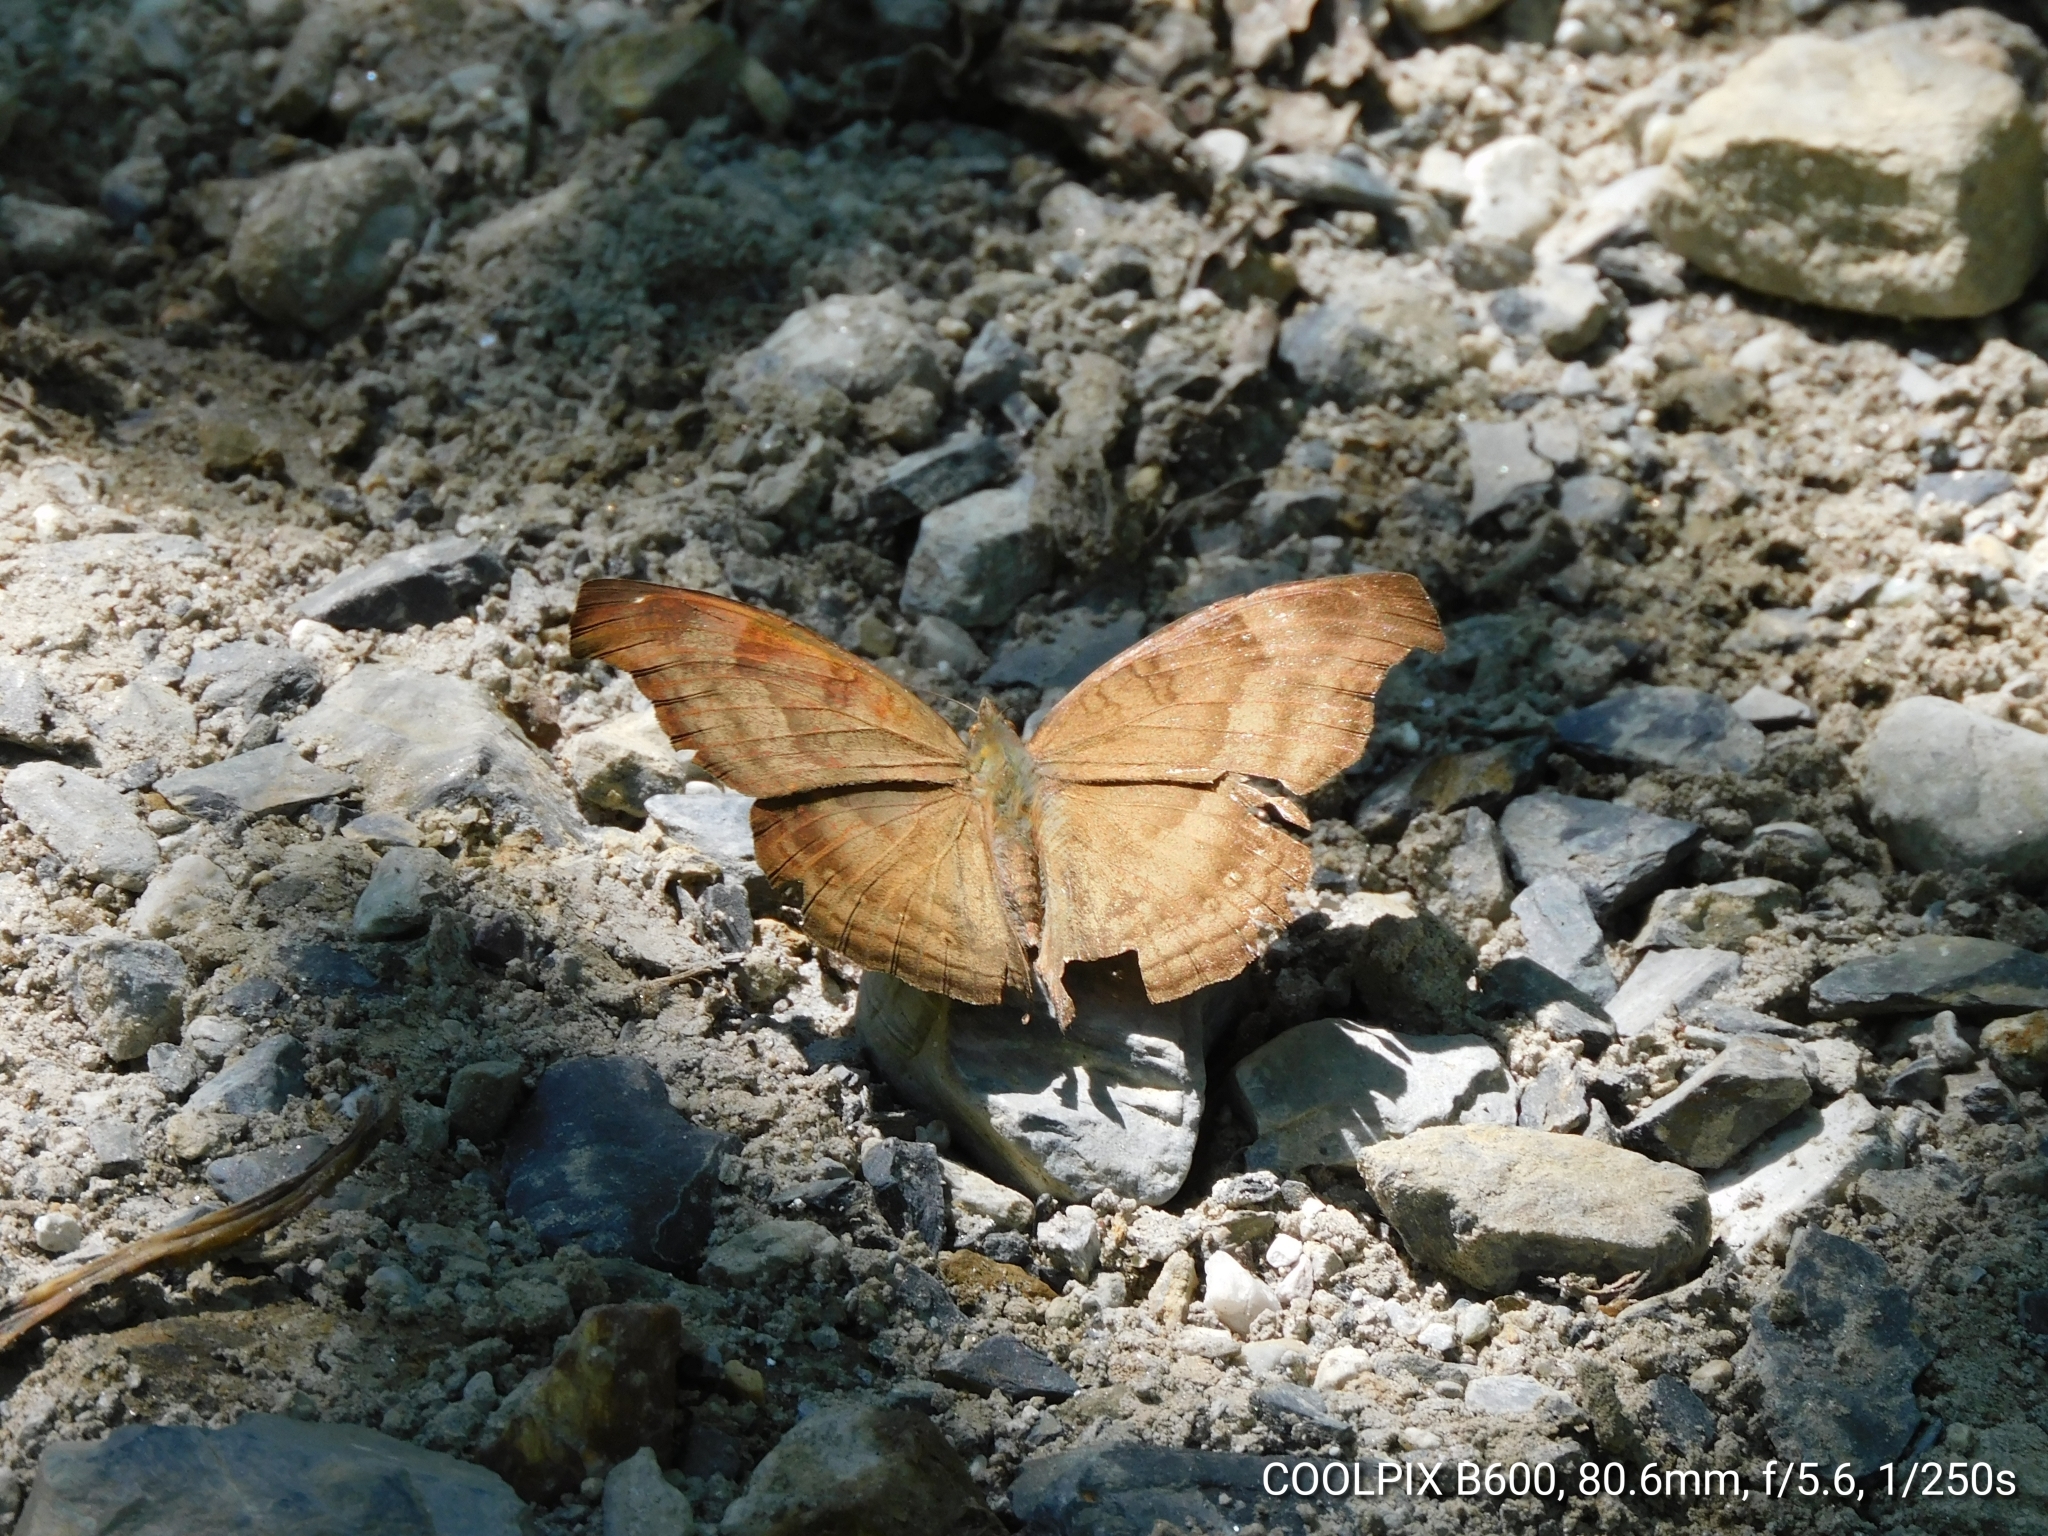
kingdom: Animalia
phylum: Arthropoda
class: Insecta
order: Lepidoptera
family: Nymphalidae
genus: Junonia
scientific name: Junonia iphita
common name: Chocolate pansy
